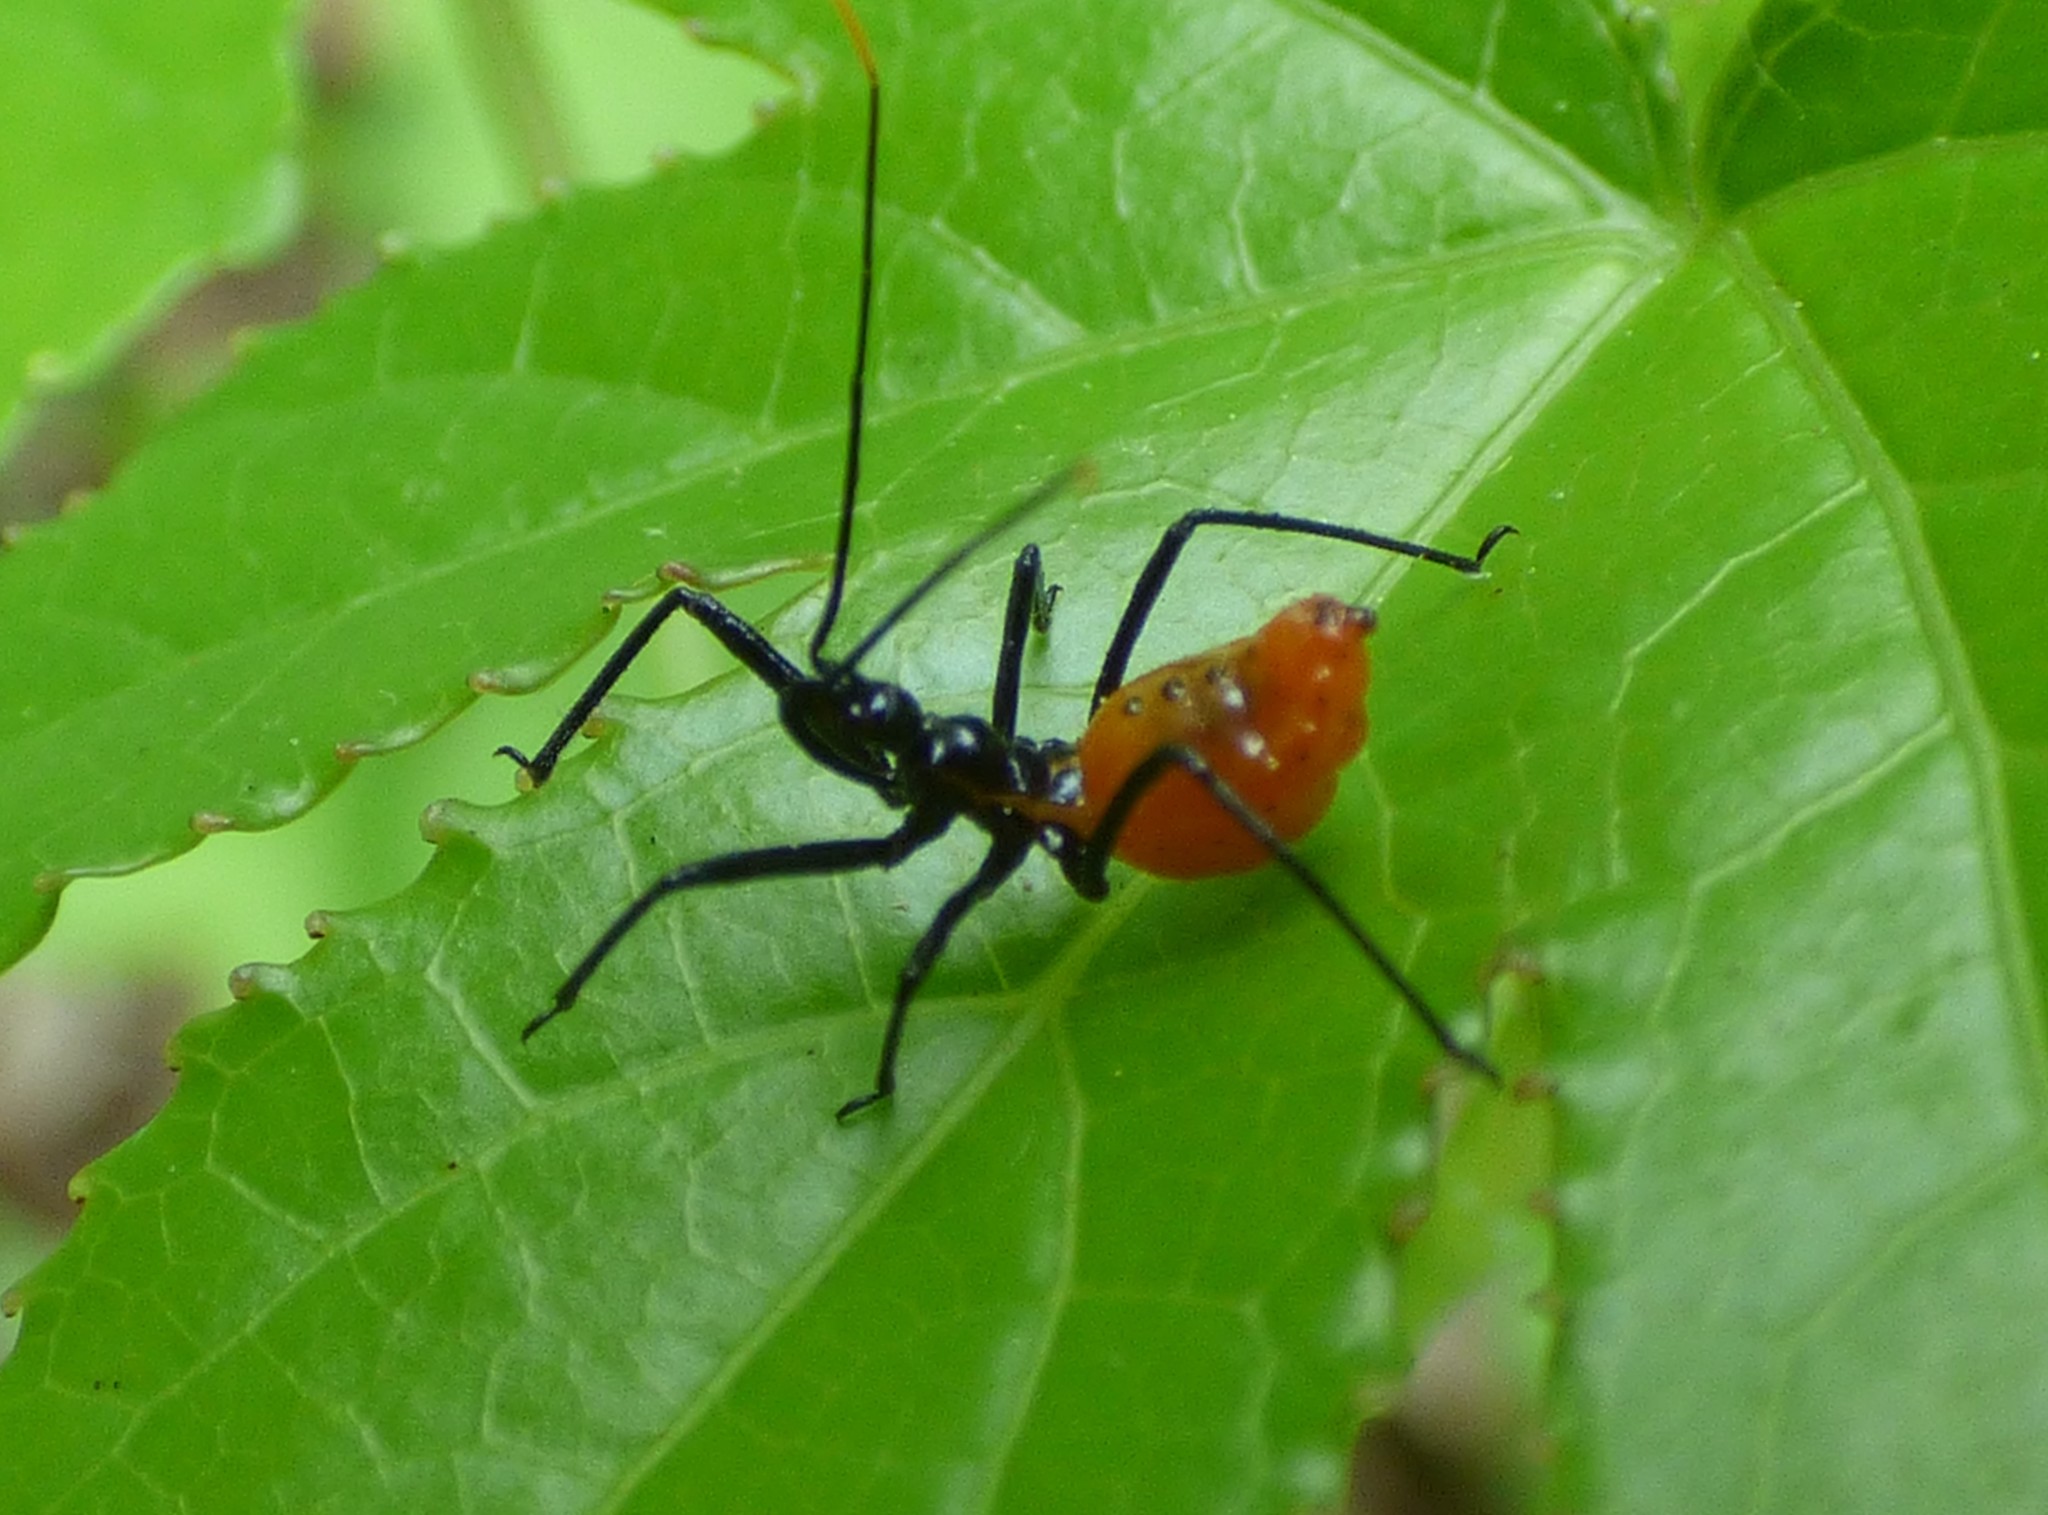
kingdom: Animalia
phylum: Arthropoda
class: Insecta
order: Hemiptera
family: Reduviidae
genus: Arilus
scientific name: Arilus cristatus
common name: North american wheel bug
